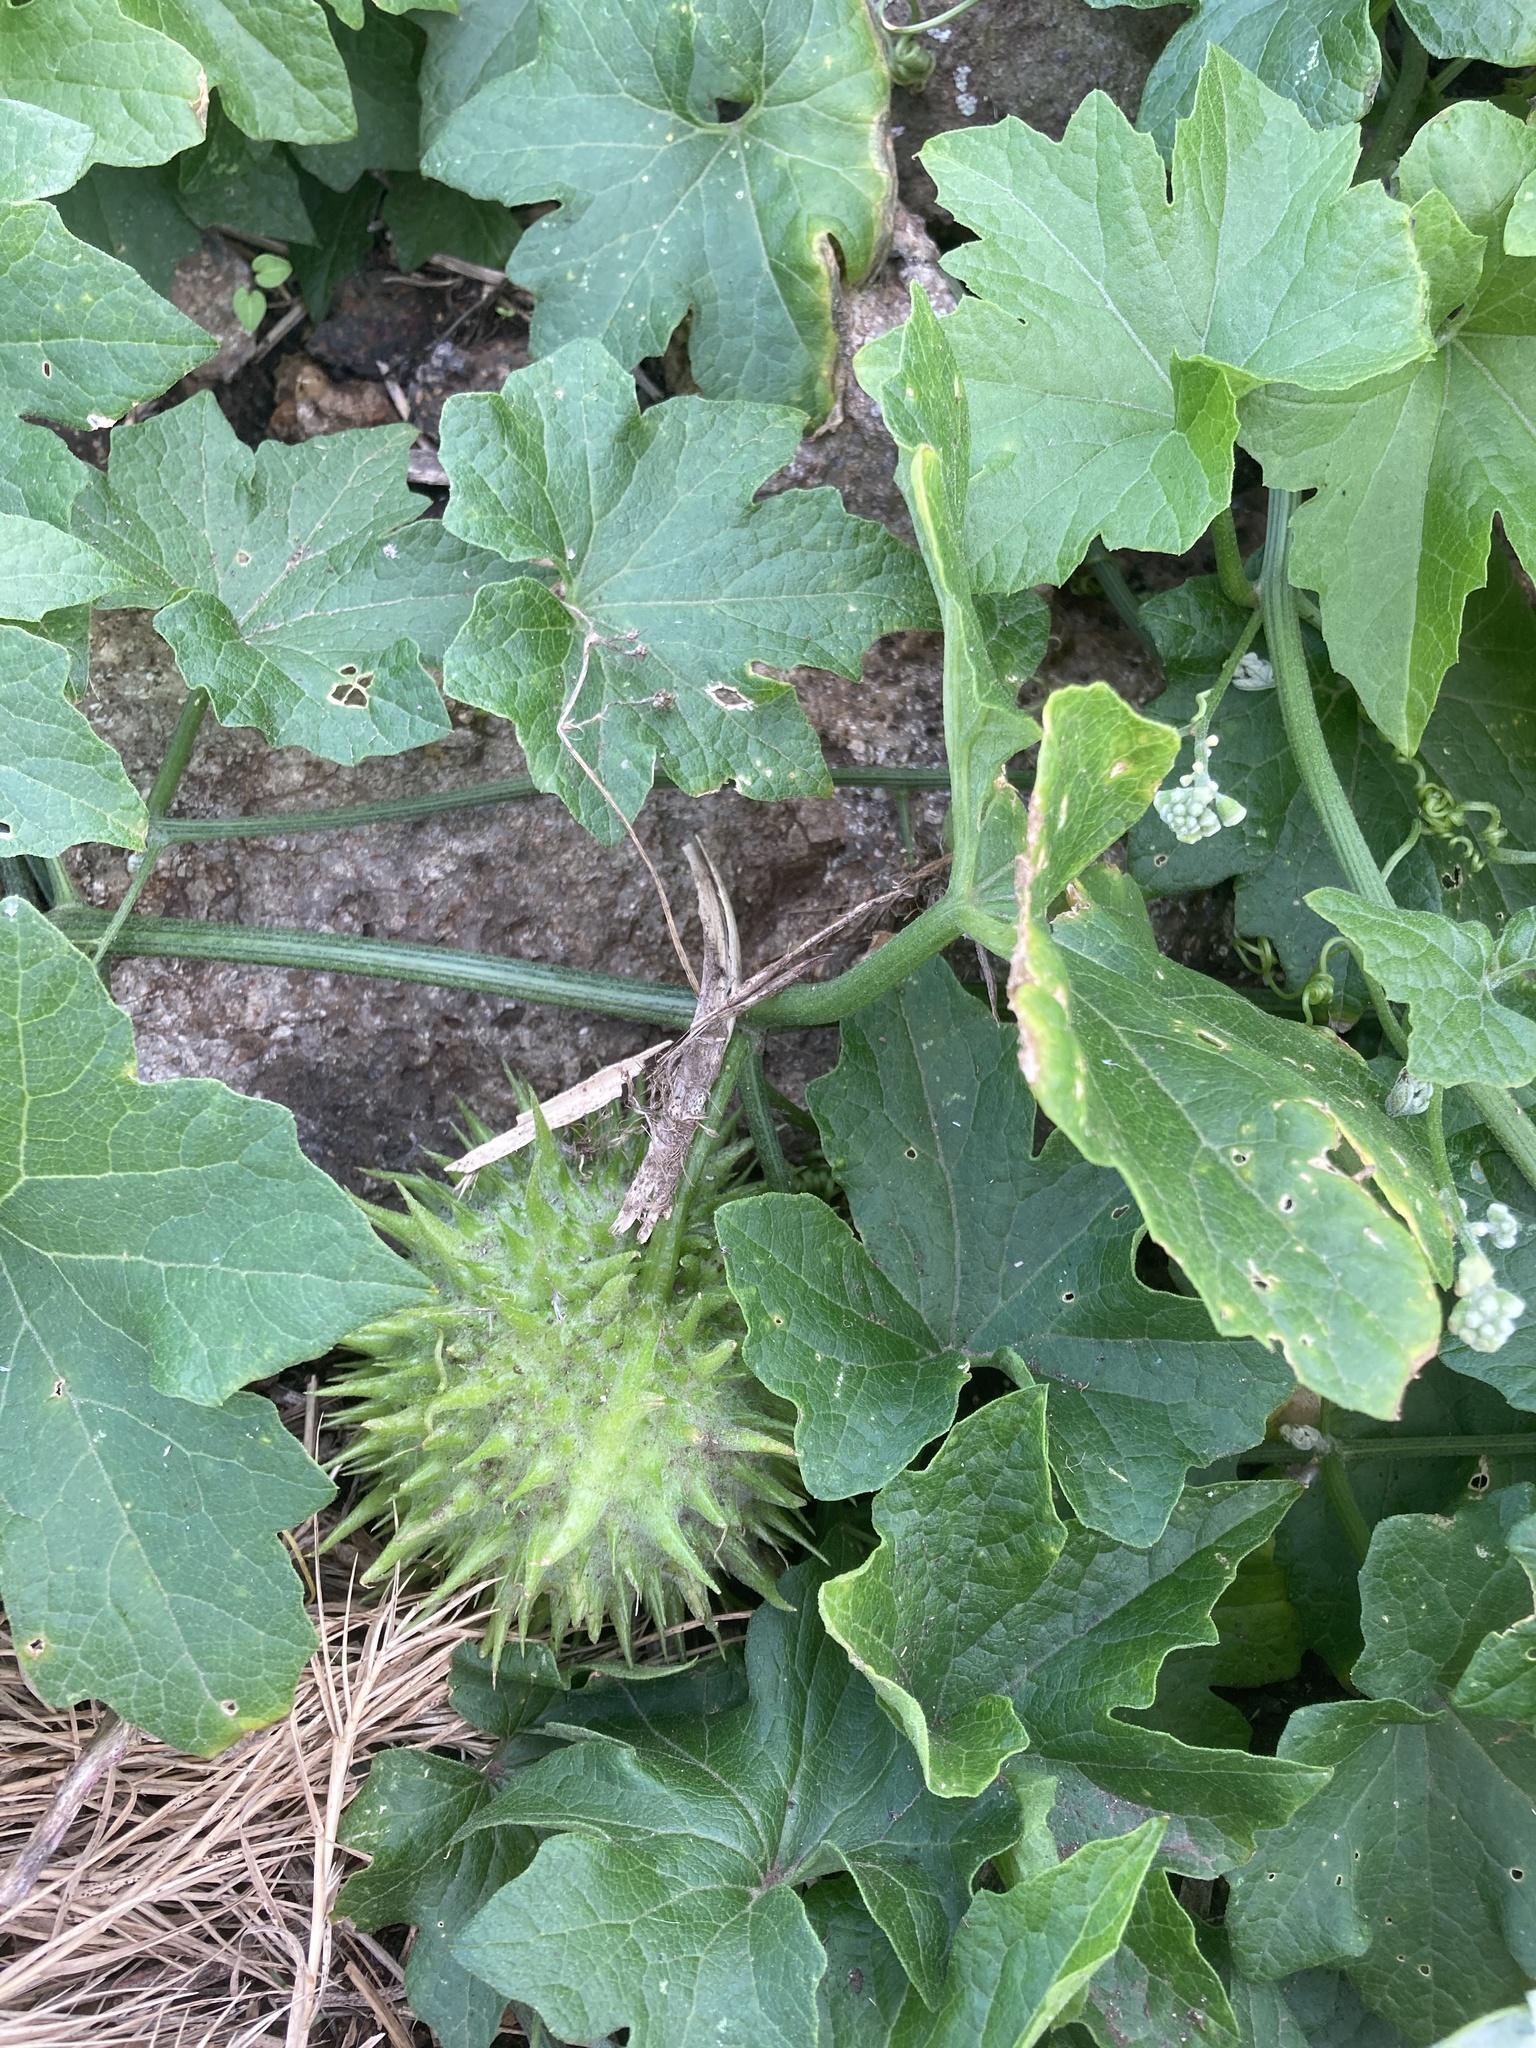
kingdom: Plantae
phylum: Tracheophyta
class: Magnoliopsida
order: Cucurbitales
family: Cucurbitaceae
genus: Marah
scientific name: Marah macrocarpa
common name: Cucamonga manroot
